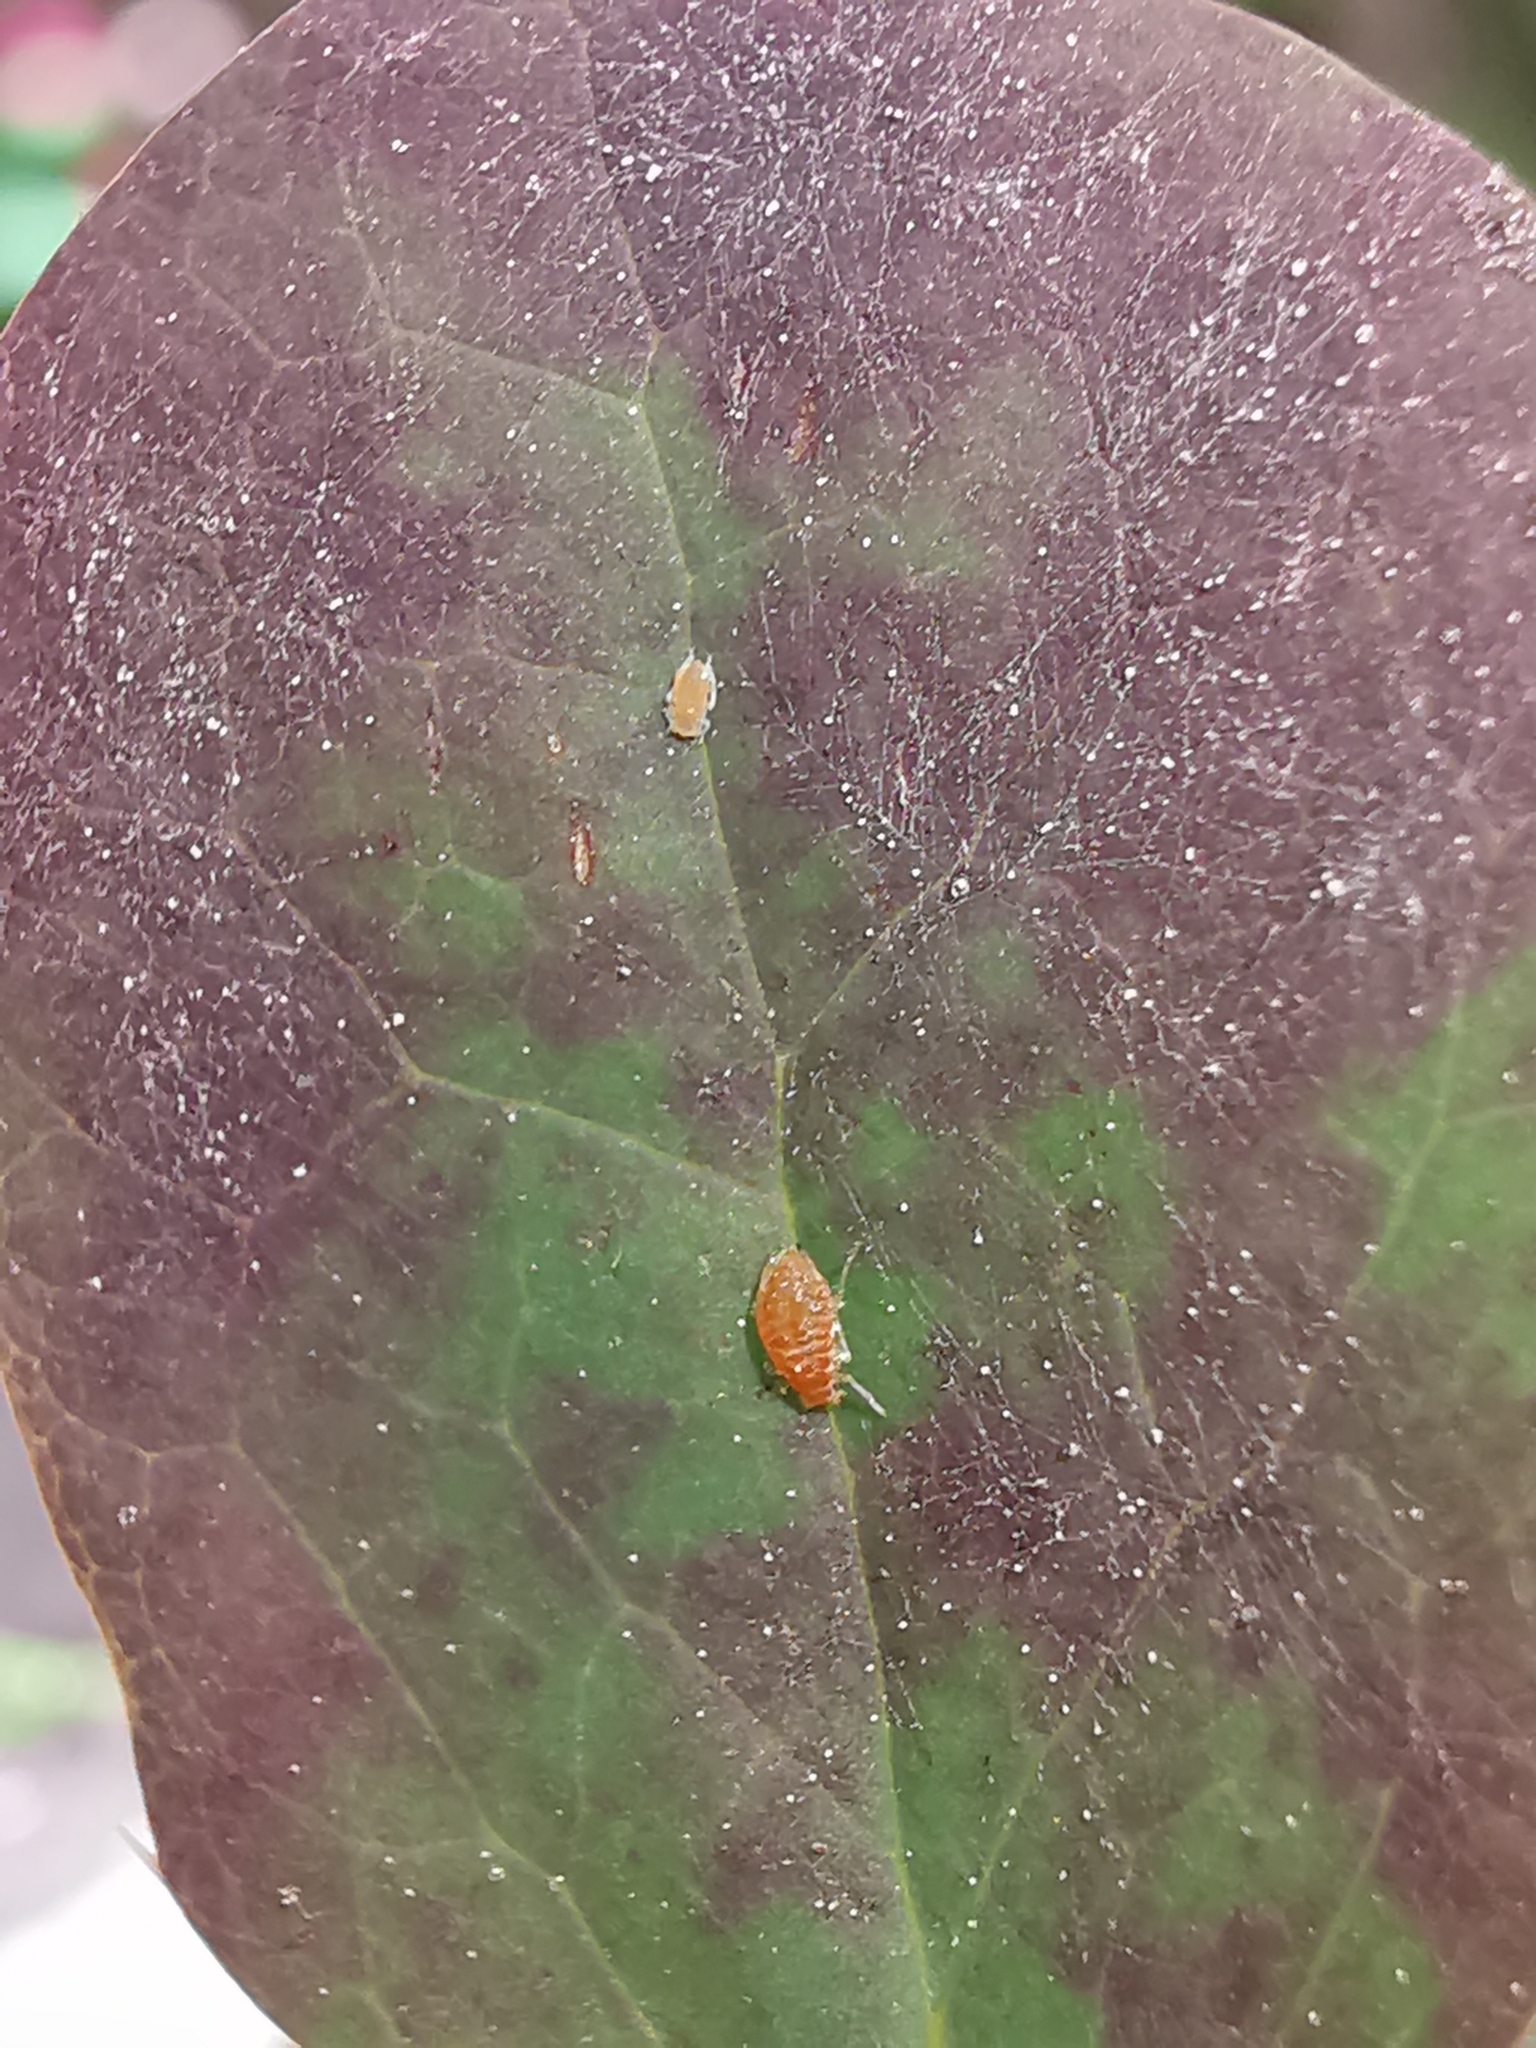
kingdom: Animalia
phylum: Arthropoda
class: Insecta
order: Hemiptera
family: Aphididae
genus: Liosomaphis
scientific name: Liosomaphis berberidis
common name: Barberry aphid
